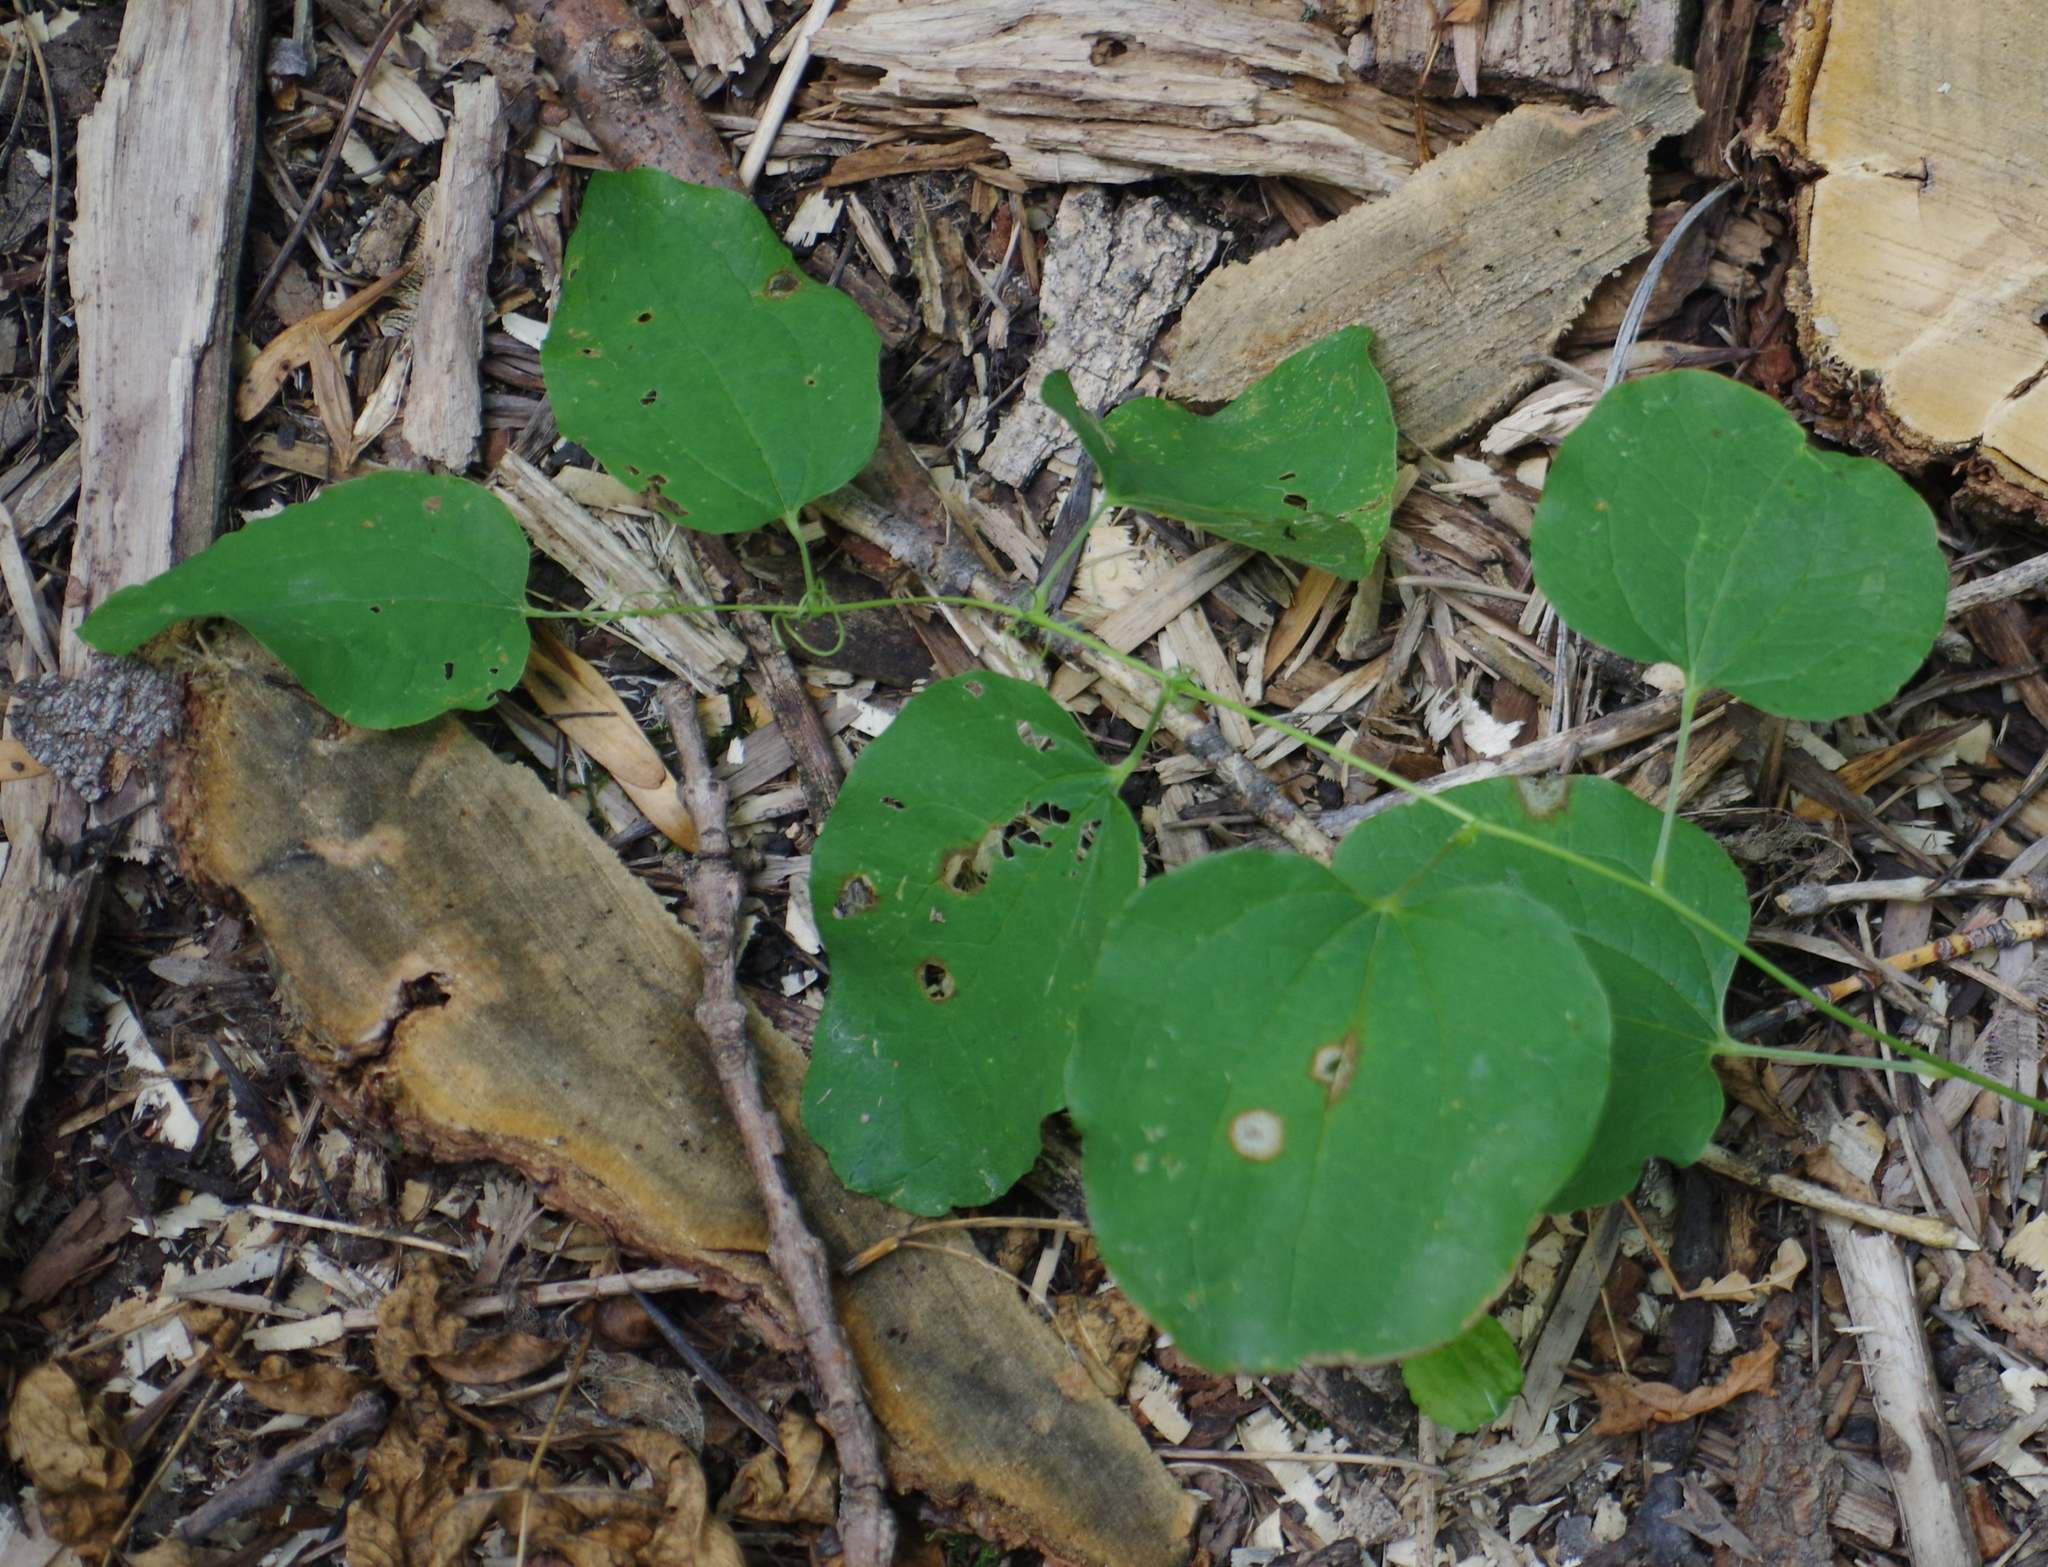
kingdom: Plantae
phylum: Tracheophyta
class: Liliopsida
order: Liliales
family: Smilacaceae
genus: Smilax
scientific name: Smilax lasioneura
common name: Blue ridge carrionflower
